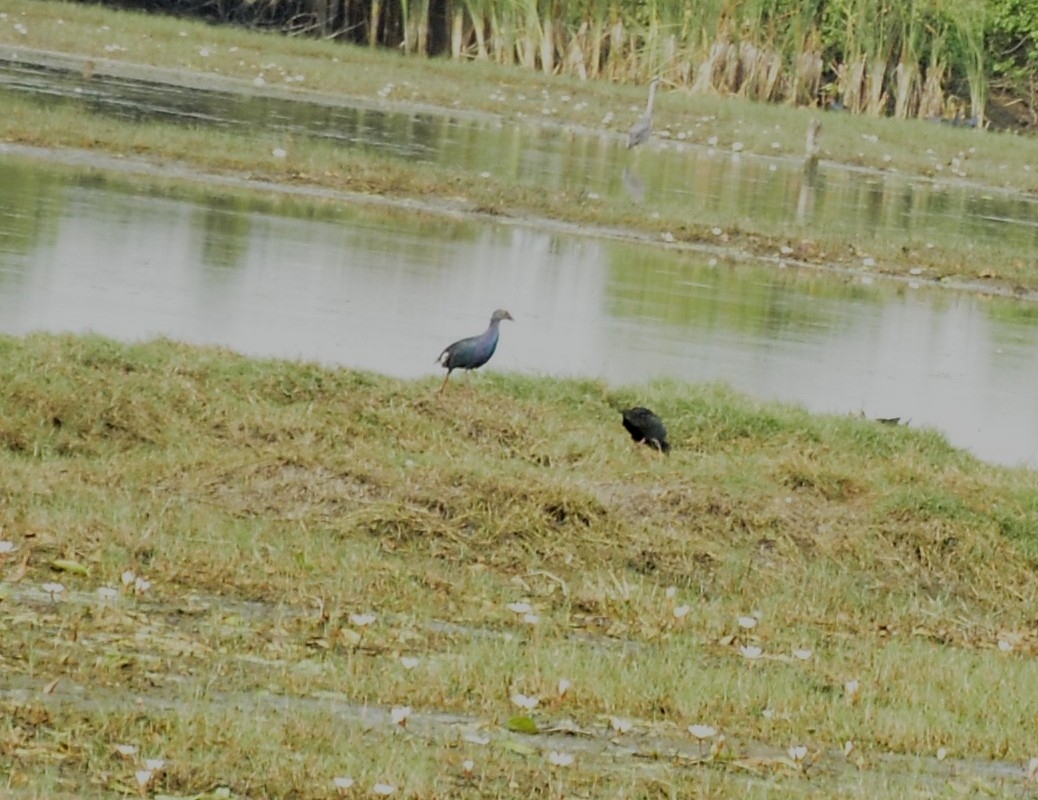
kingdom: Animalia
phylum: Chordata
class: Aves
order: Gruiformes
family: Rallidae
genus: Porphyrio
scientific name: Porphyrio porphyrio
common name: Purple swamphen
